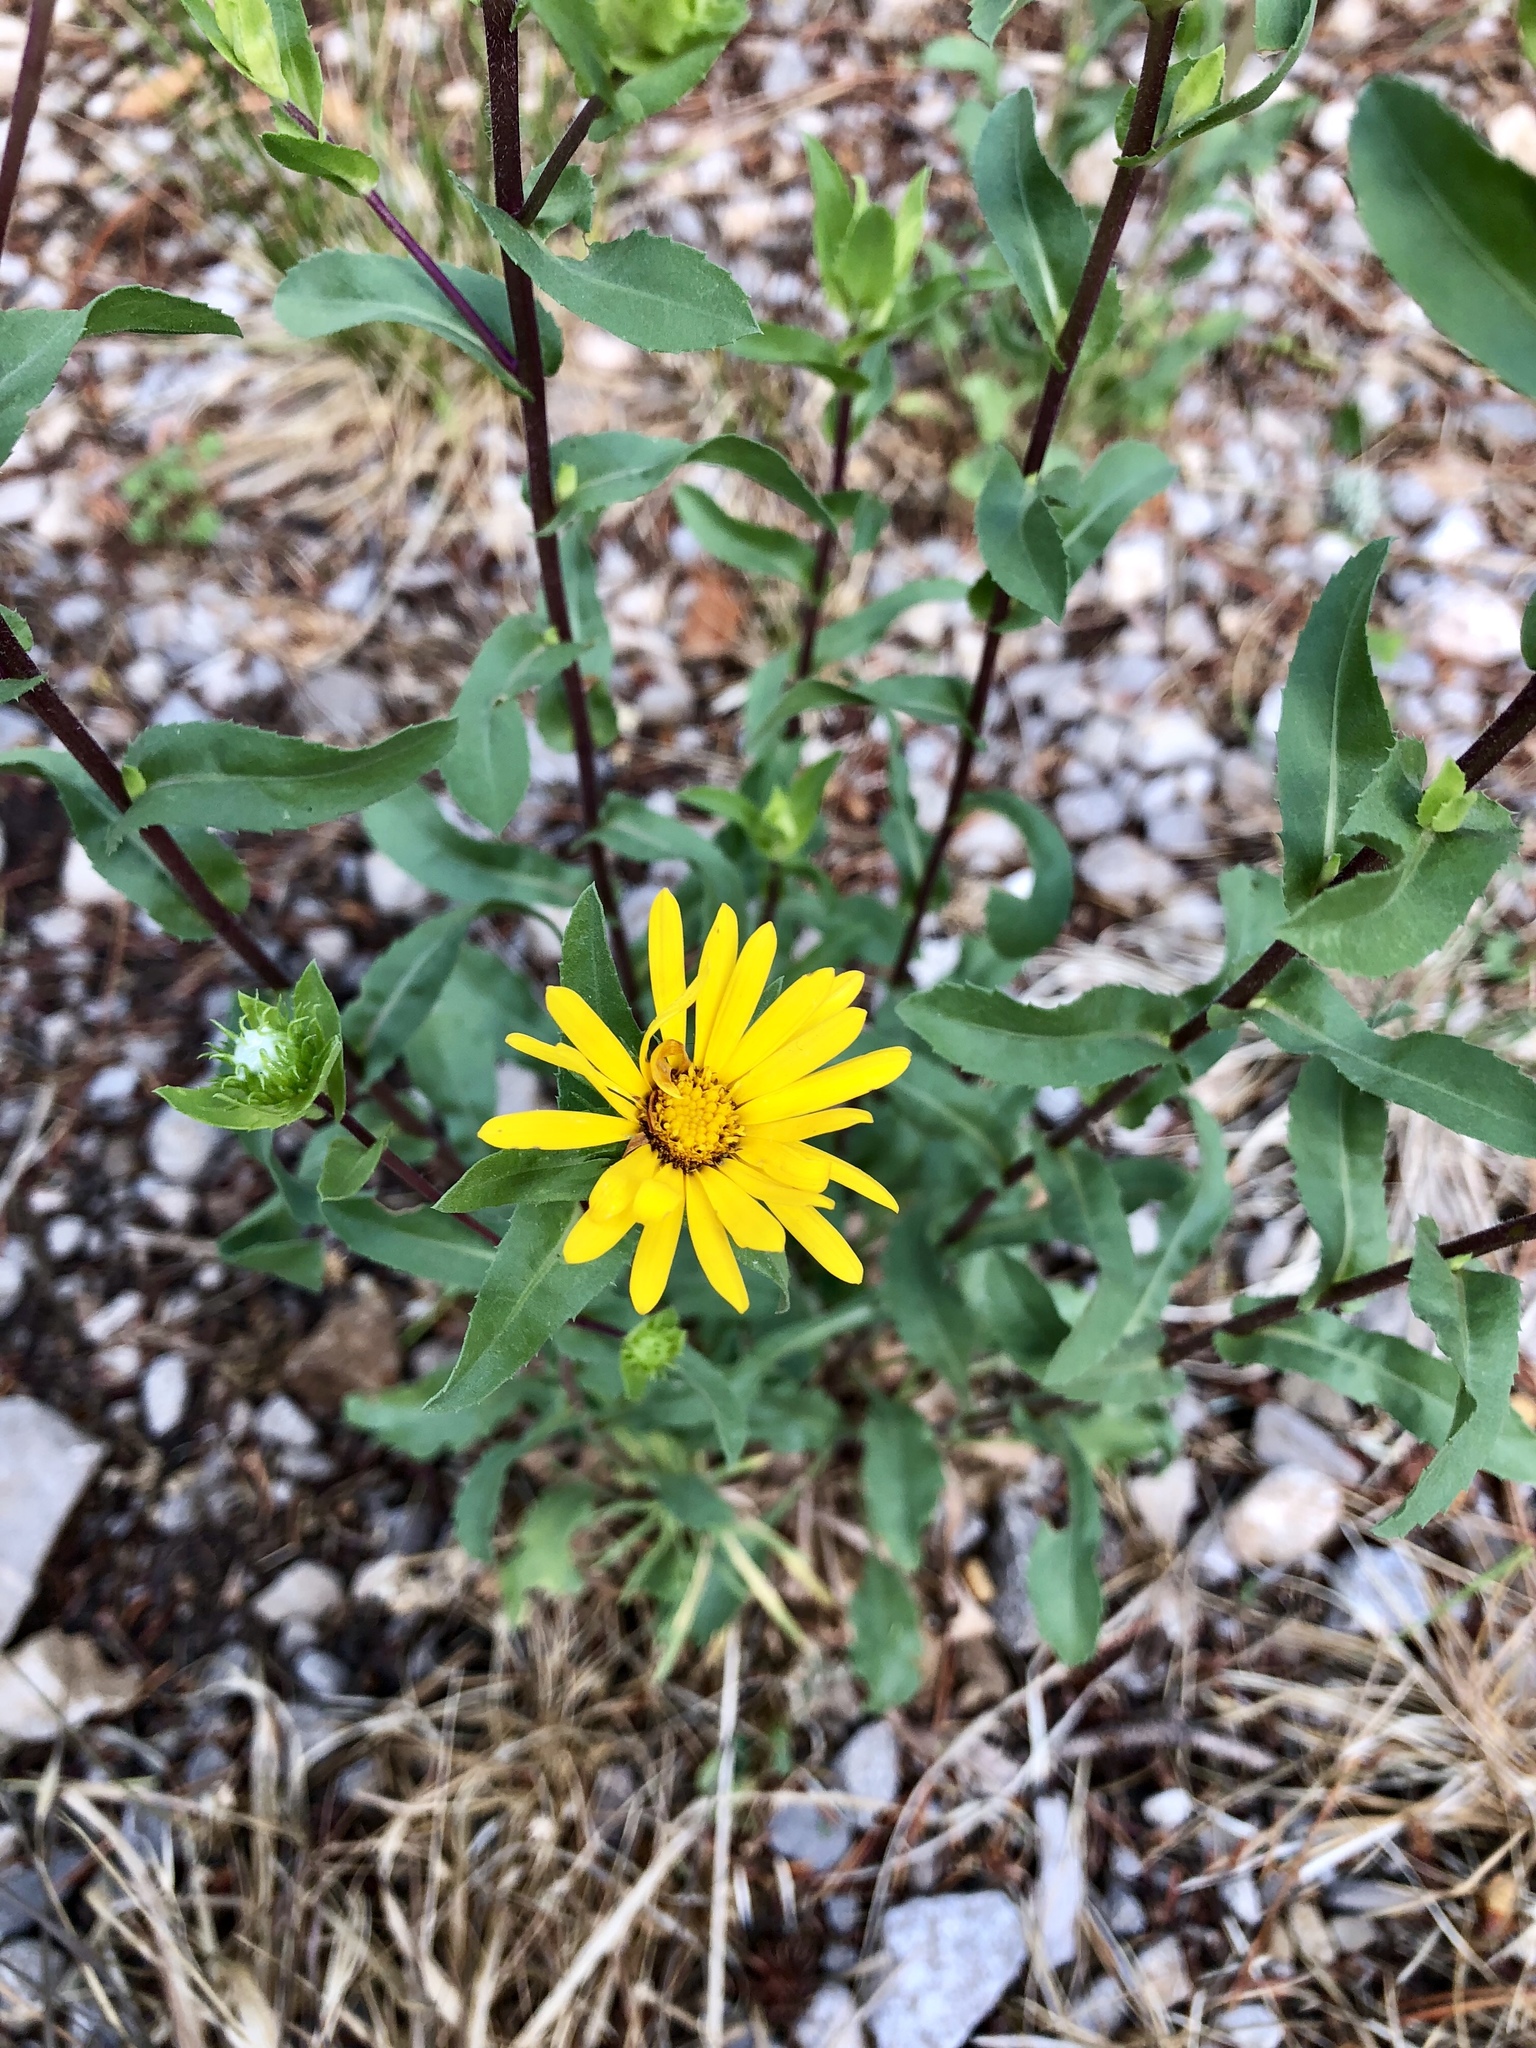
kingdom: Plantae
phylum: Tracheophyta
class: Magnoliopsida
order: Asterales
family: Asteraceae
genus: Grindelia
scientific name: Grindelia scabra
